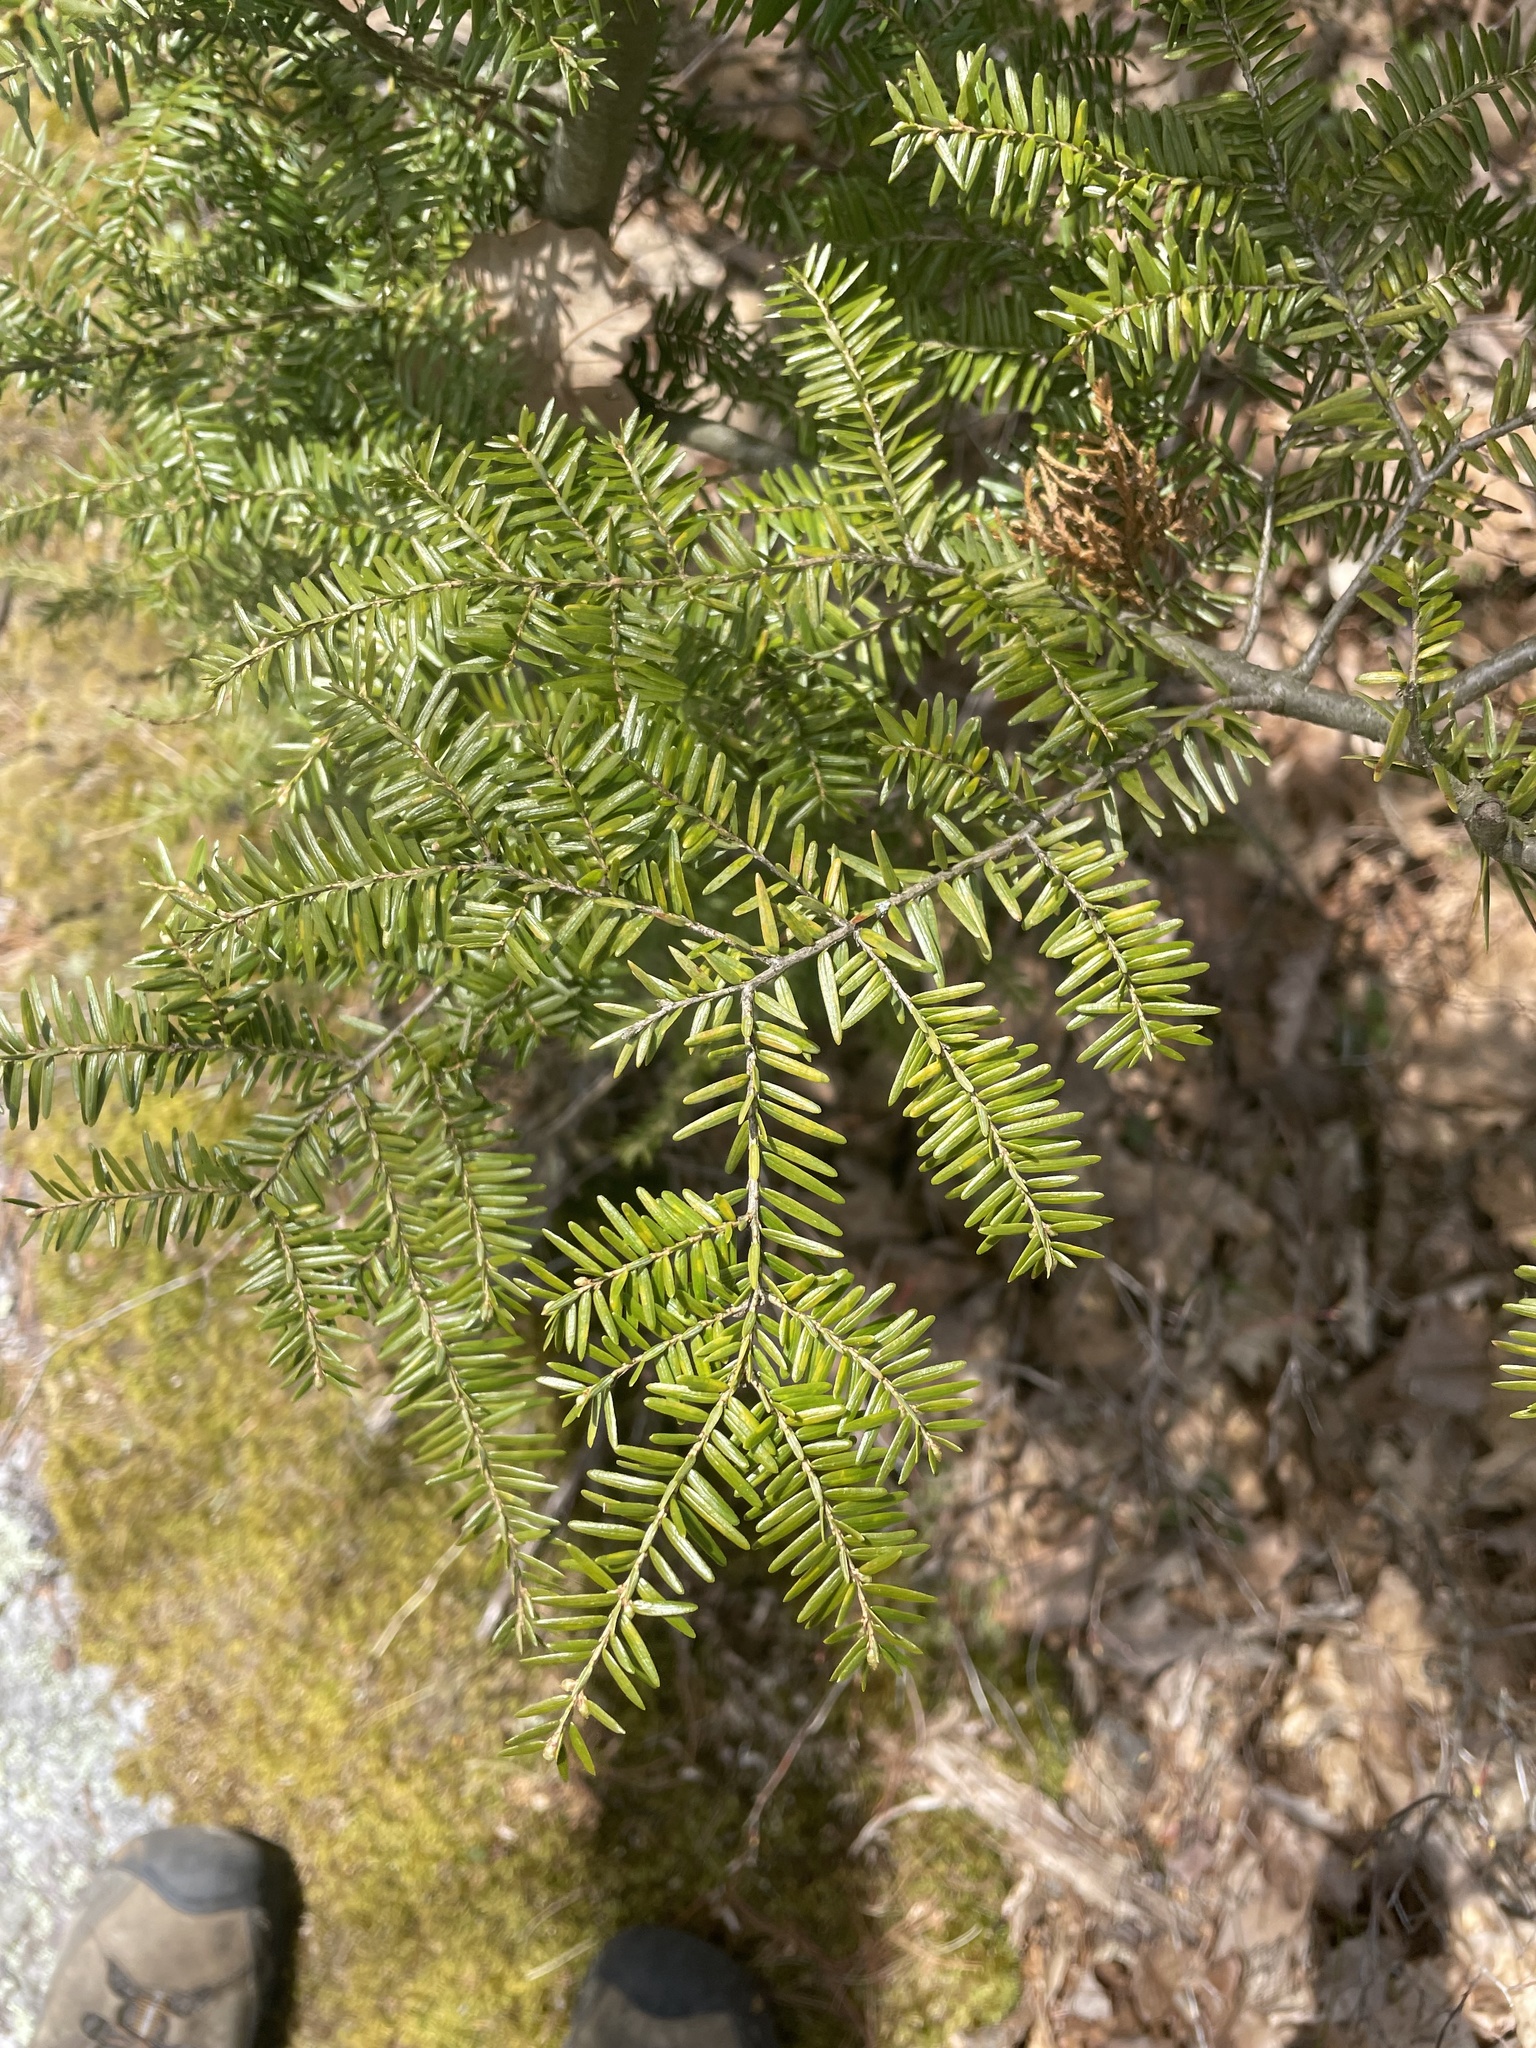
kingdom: Plantae
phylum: Tracheophyta
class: Pinopsida
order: Pinales
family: Pinaceae
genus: Tsuga
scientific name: Tsuga canadensis
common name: Eastern hemlock
